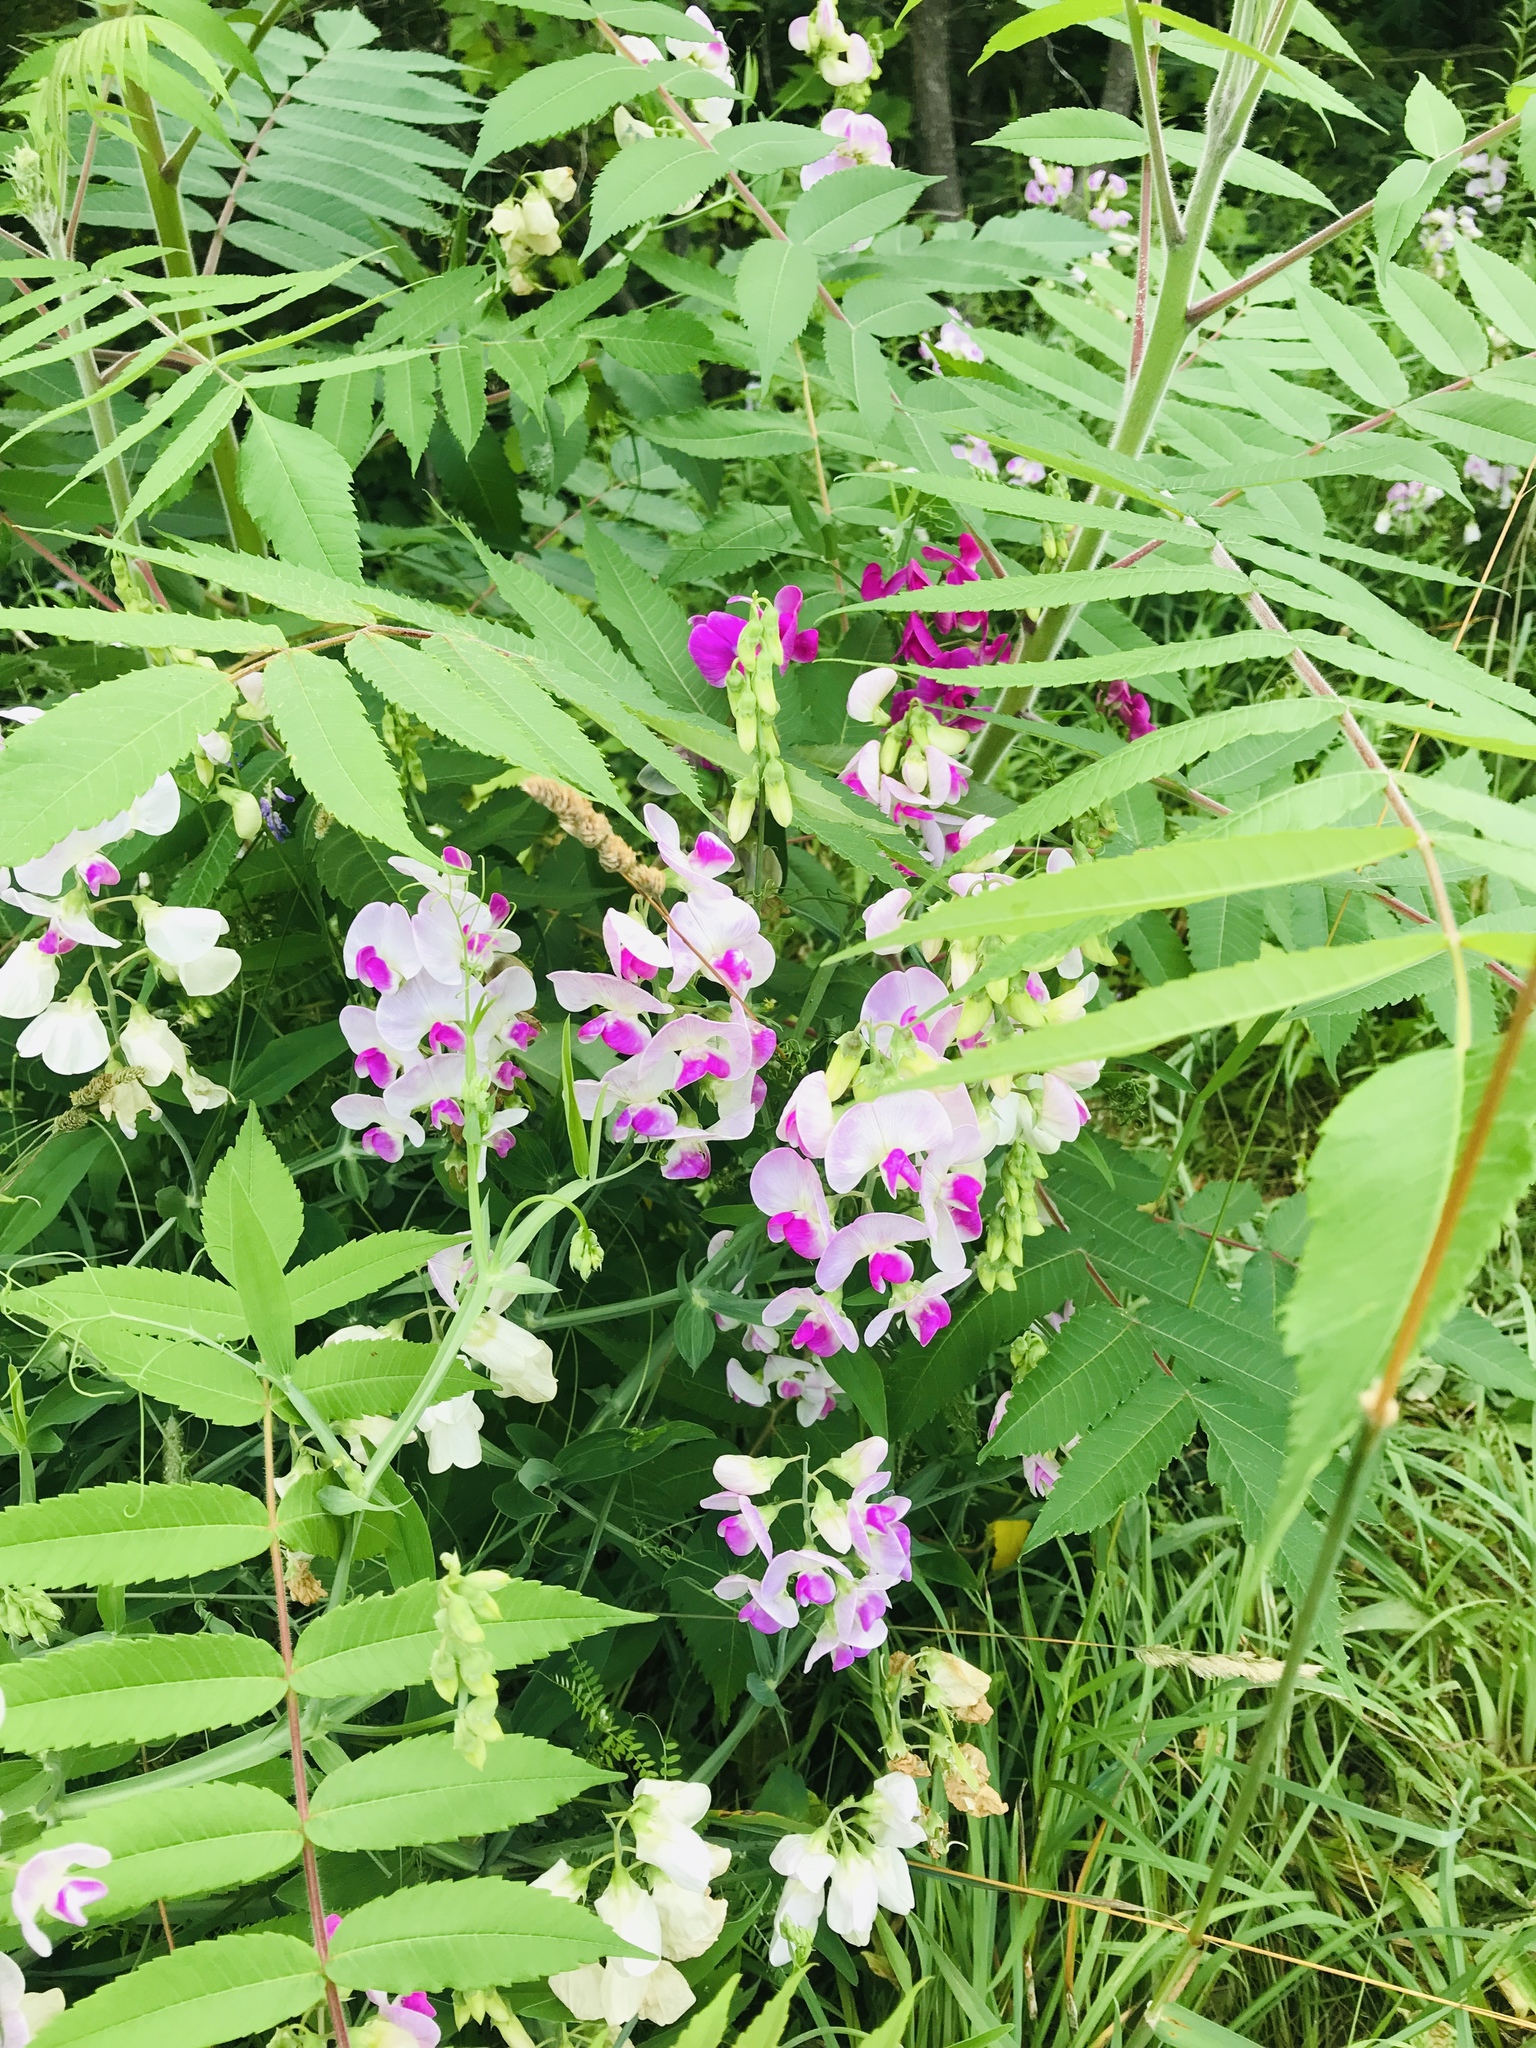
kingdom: Plantae
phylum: Tracheophyta
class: Magnoliopsida
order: Fabales
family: Fabaceae
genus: Lathyrus
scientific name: Lathyrus latifolius
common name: Perennial pea
